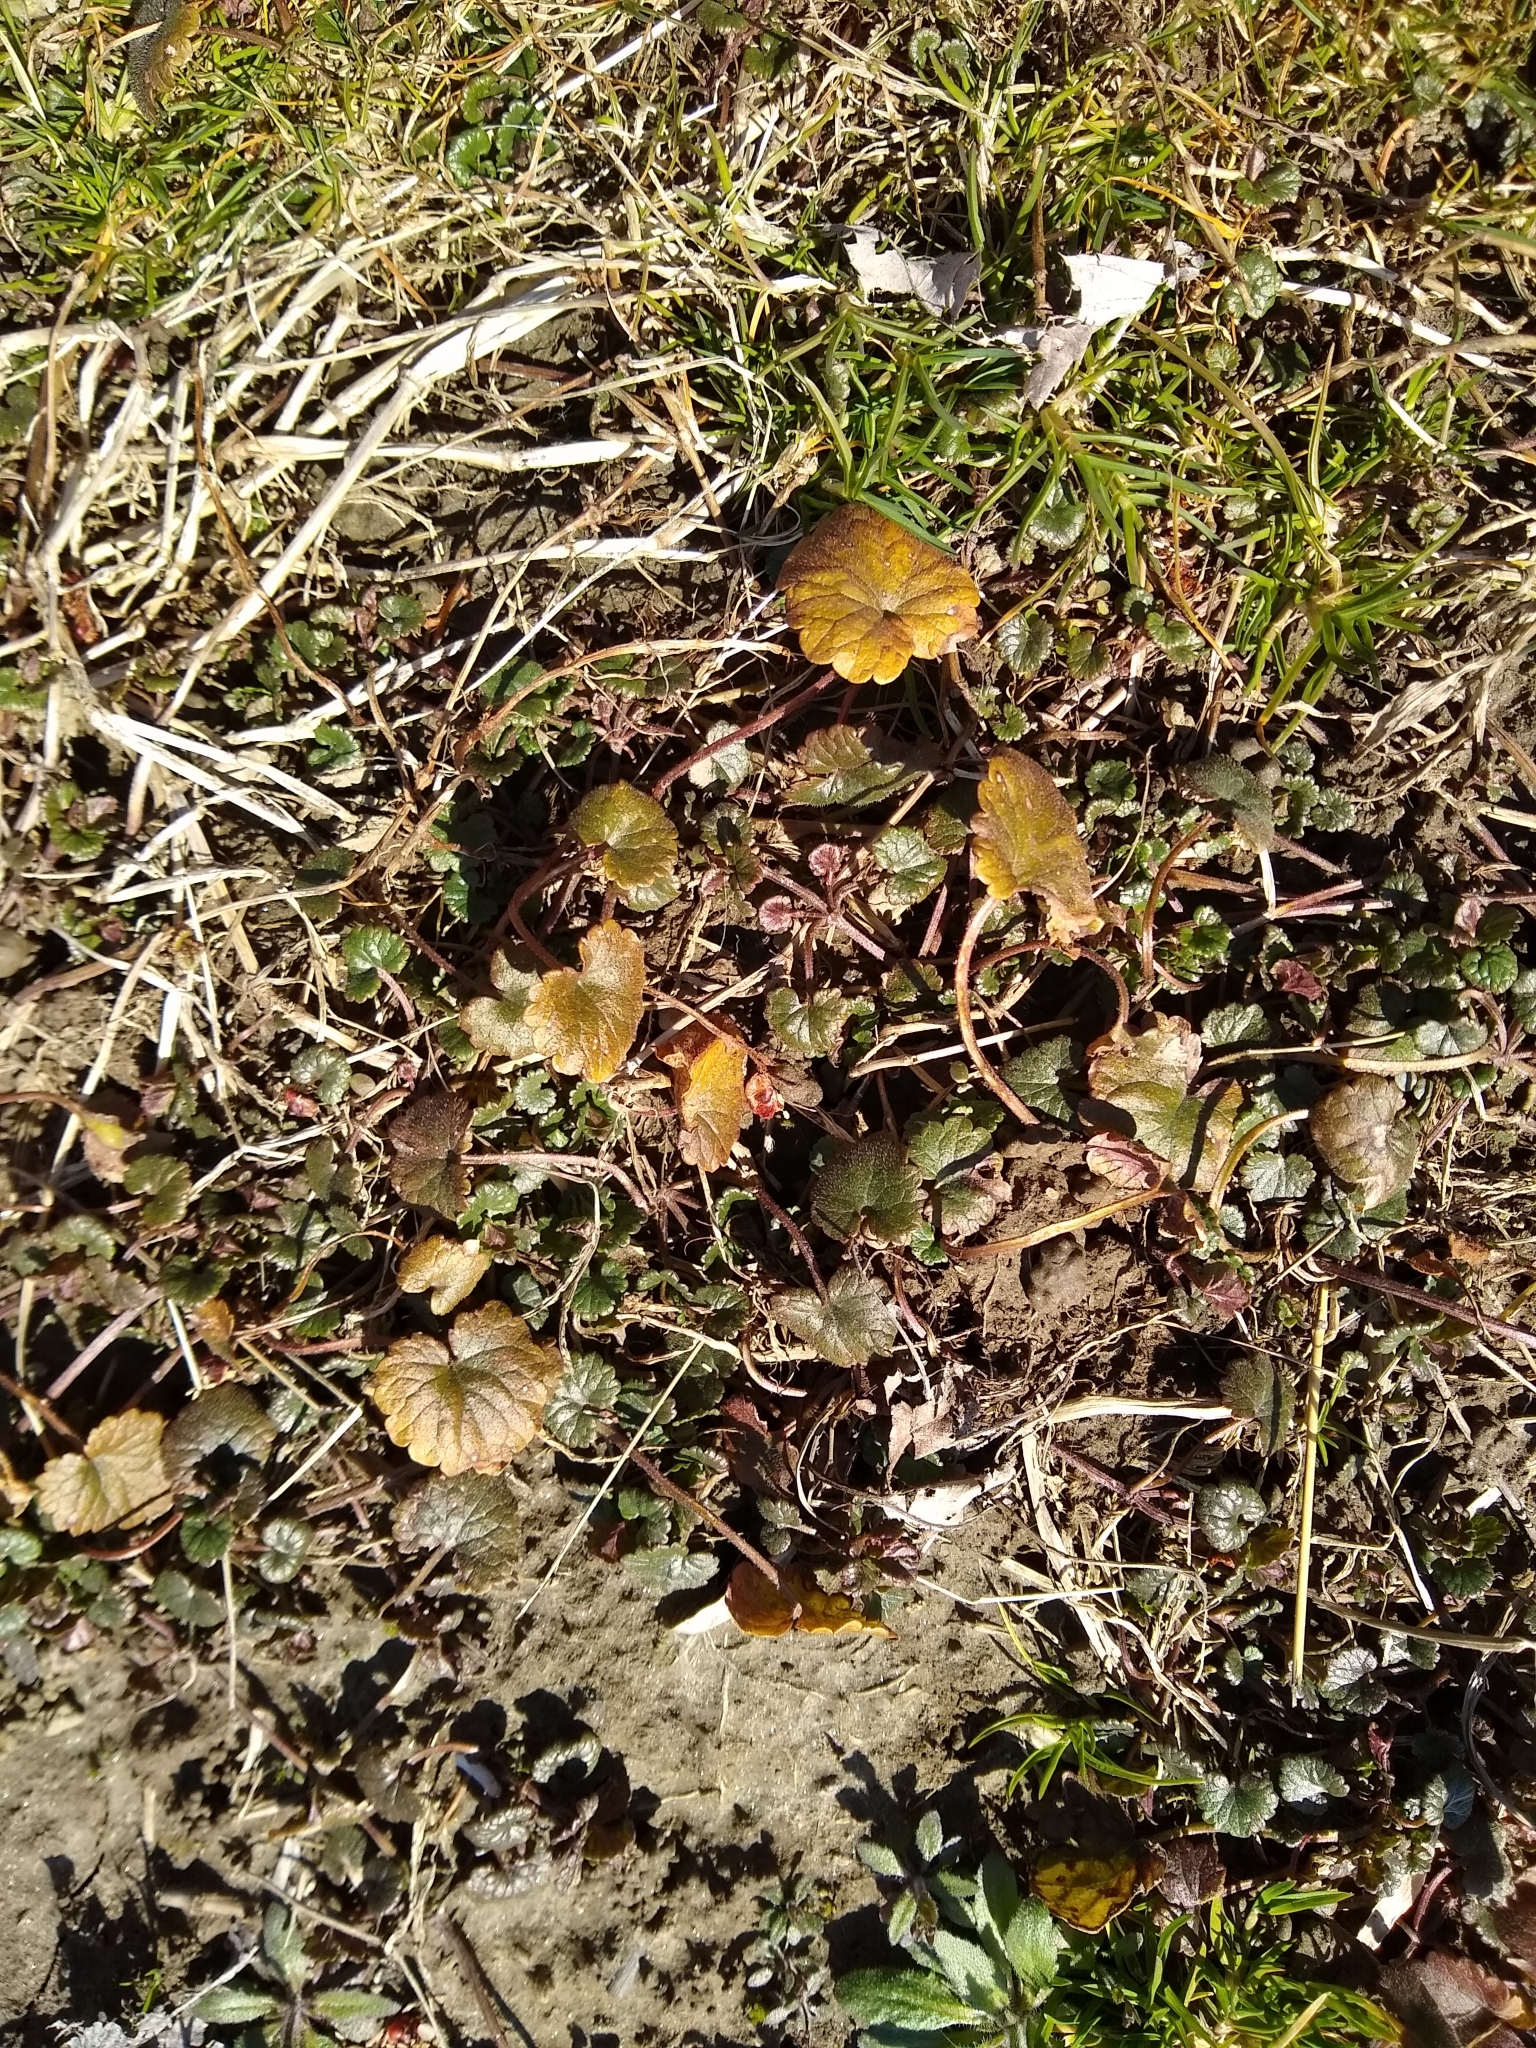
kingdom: Plantae
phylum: Tracheophyta
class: Magnoliopsida
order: Lamiales
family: Lamiaceae
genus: Glechoma
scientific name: Glechoma hederacea
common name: Ground ivy
